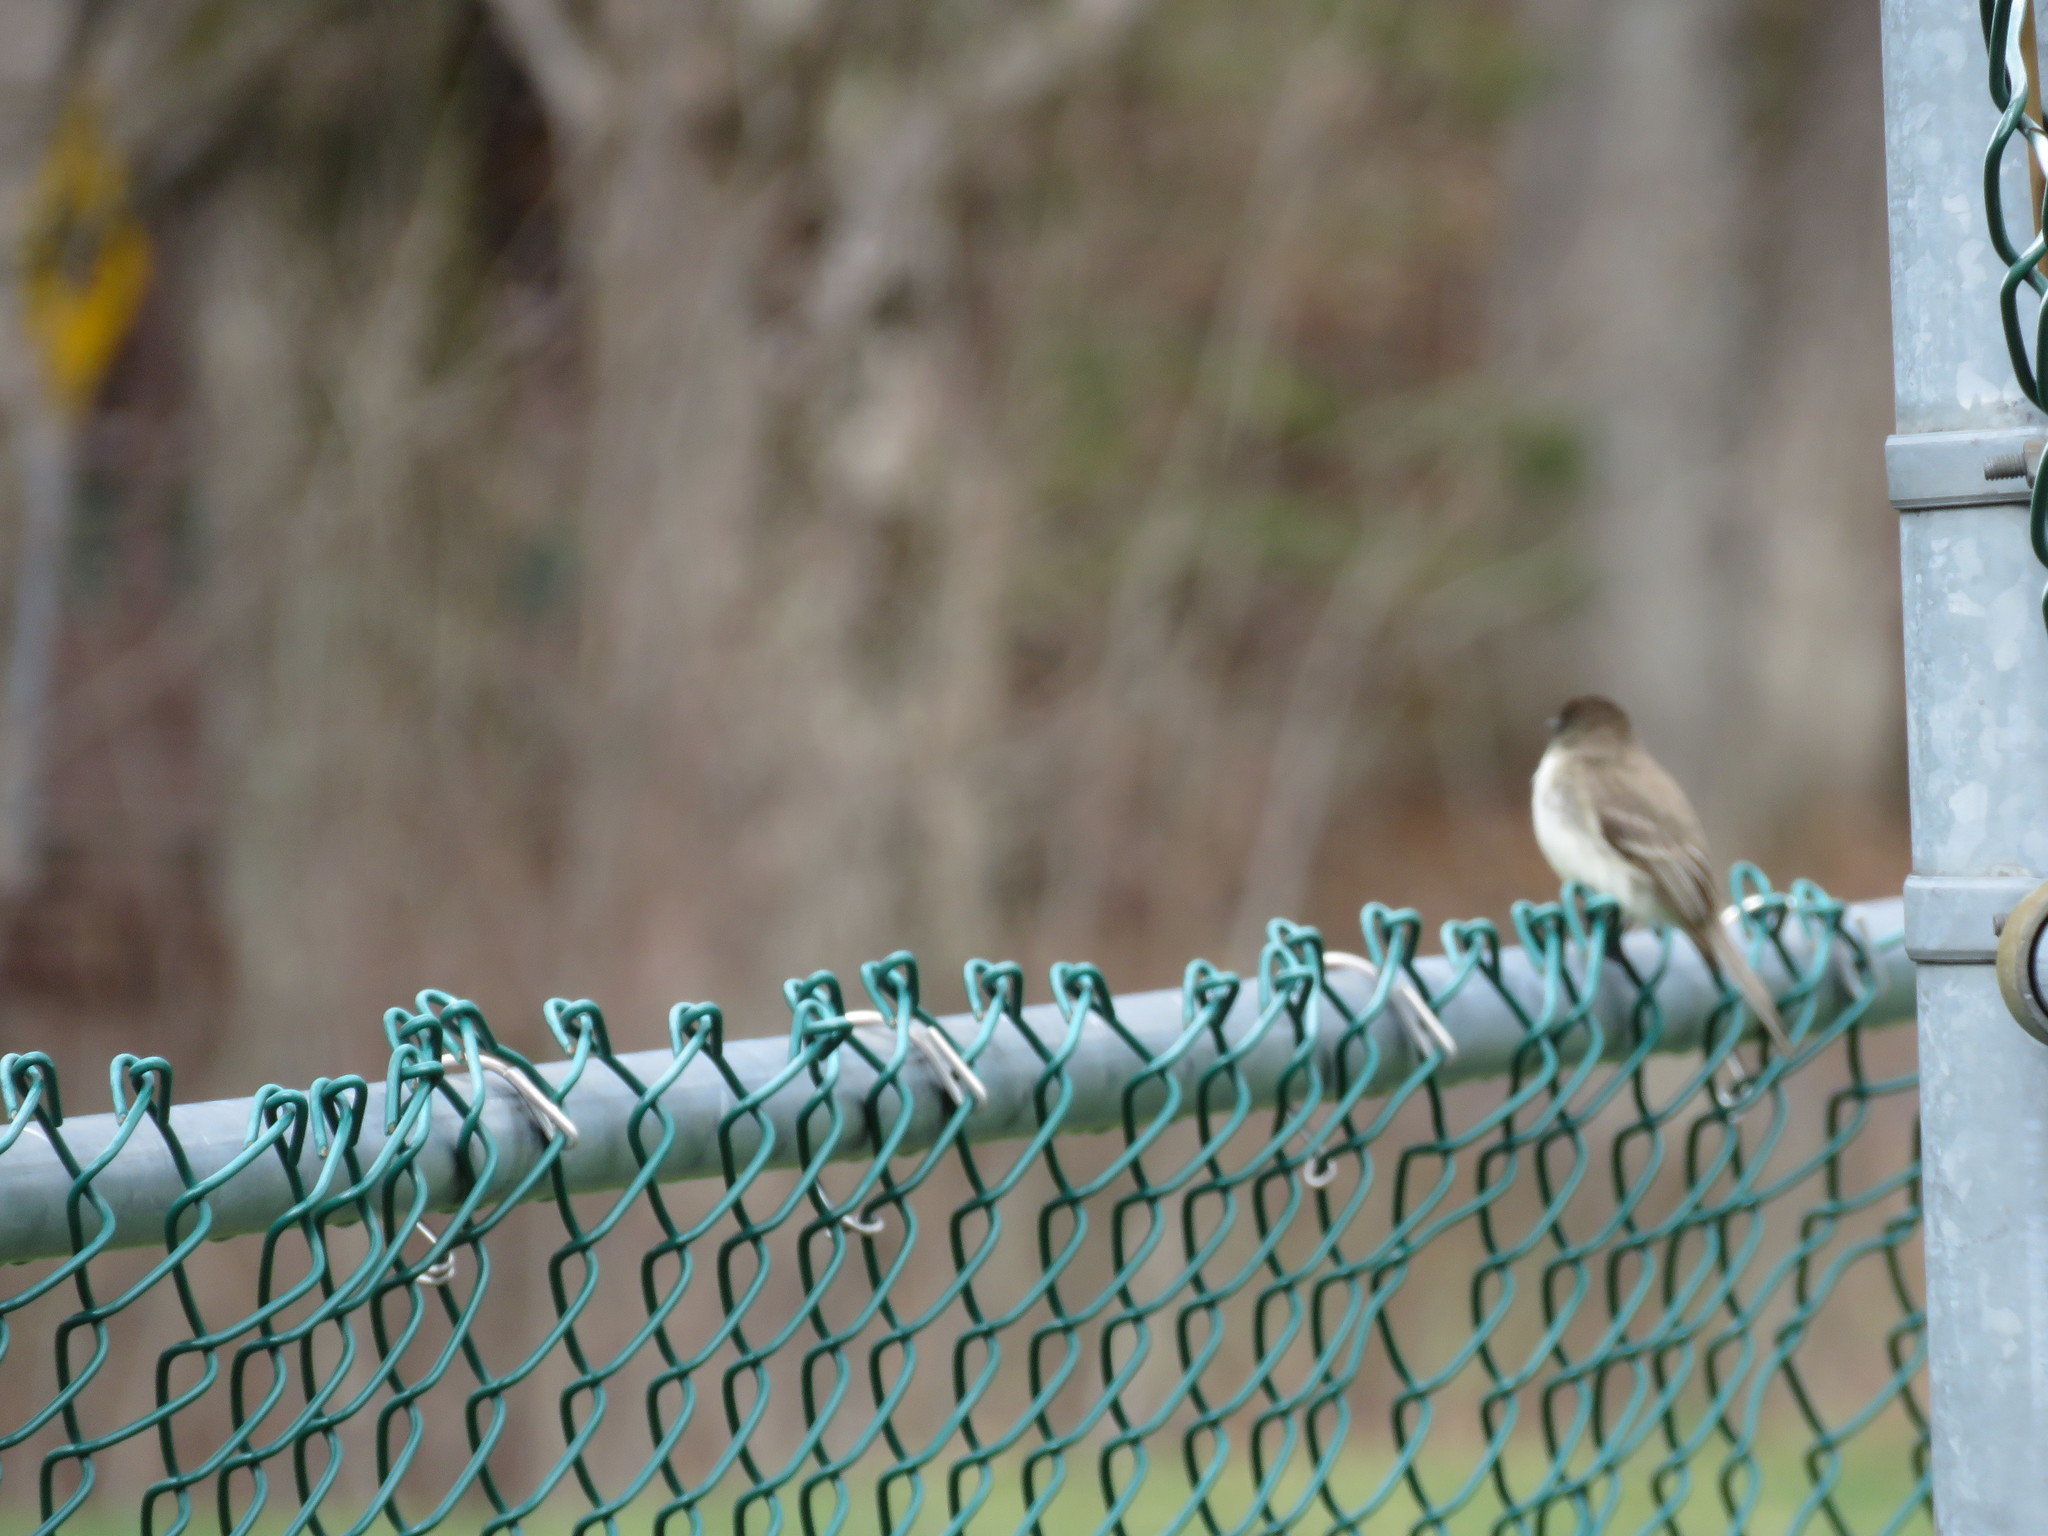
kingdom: Animalia
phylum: Chordata
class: Aves
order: Passeriformes
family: Tyrannidae
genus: Sayornis
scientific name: Sayornis phoebe
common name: Eastern phoebe
